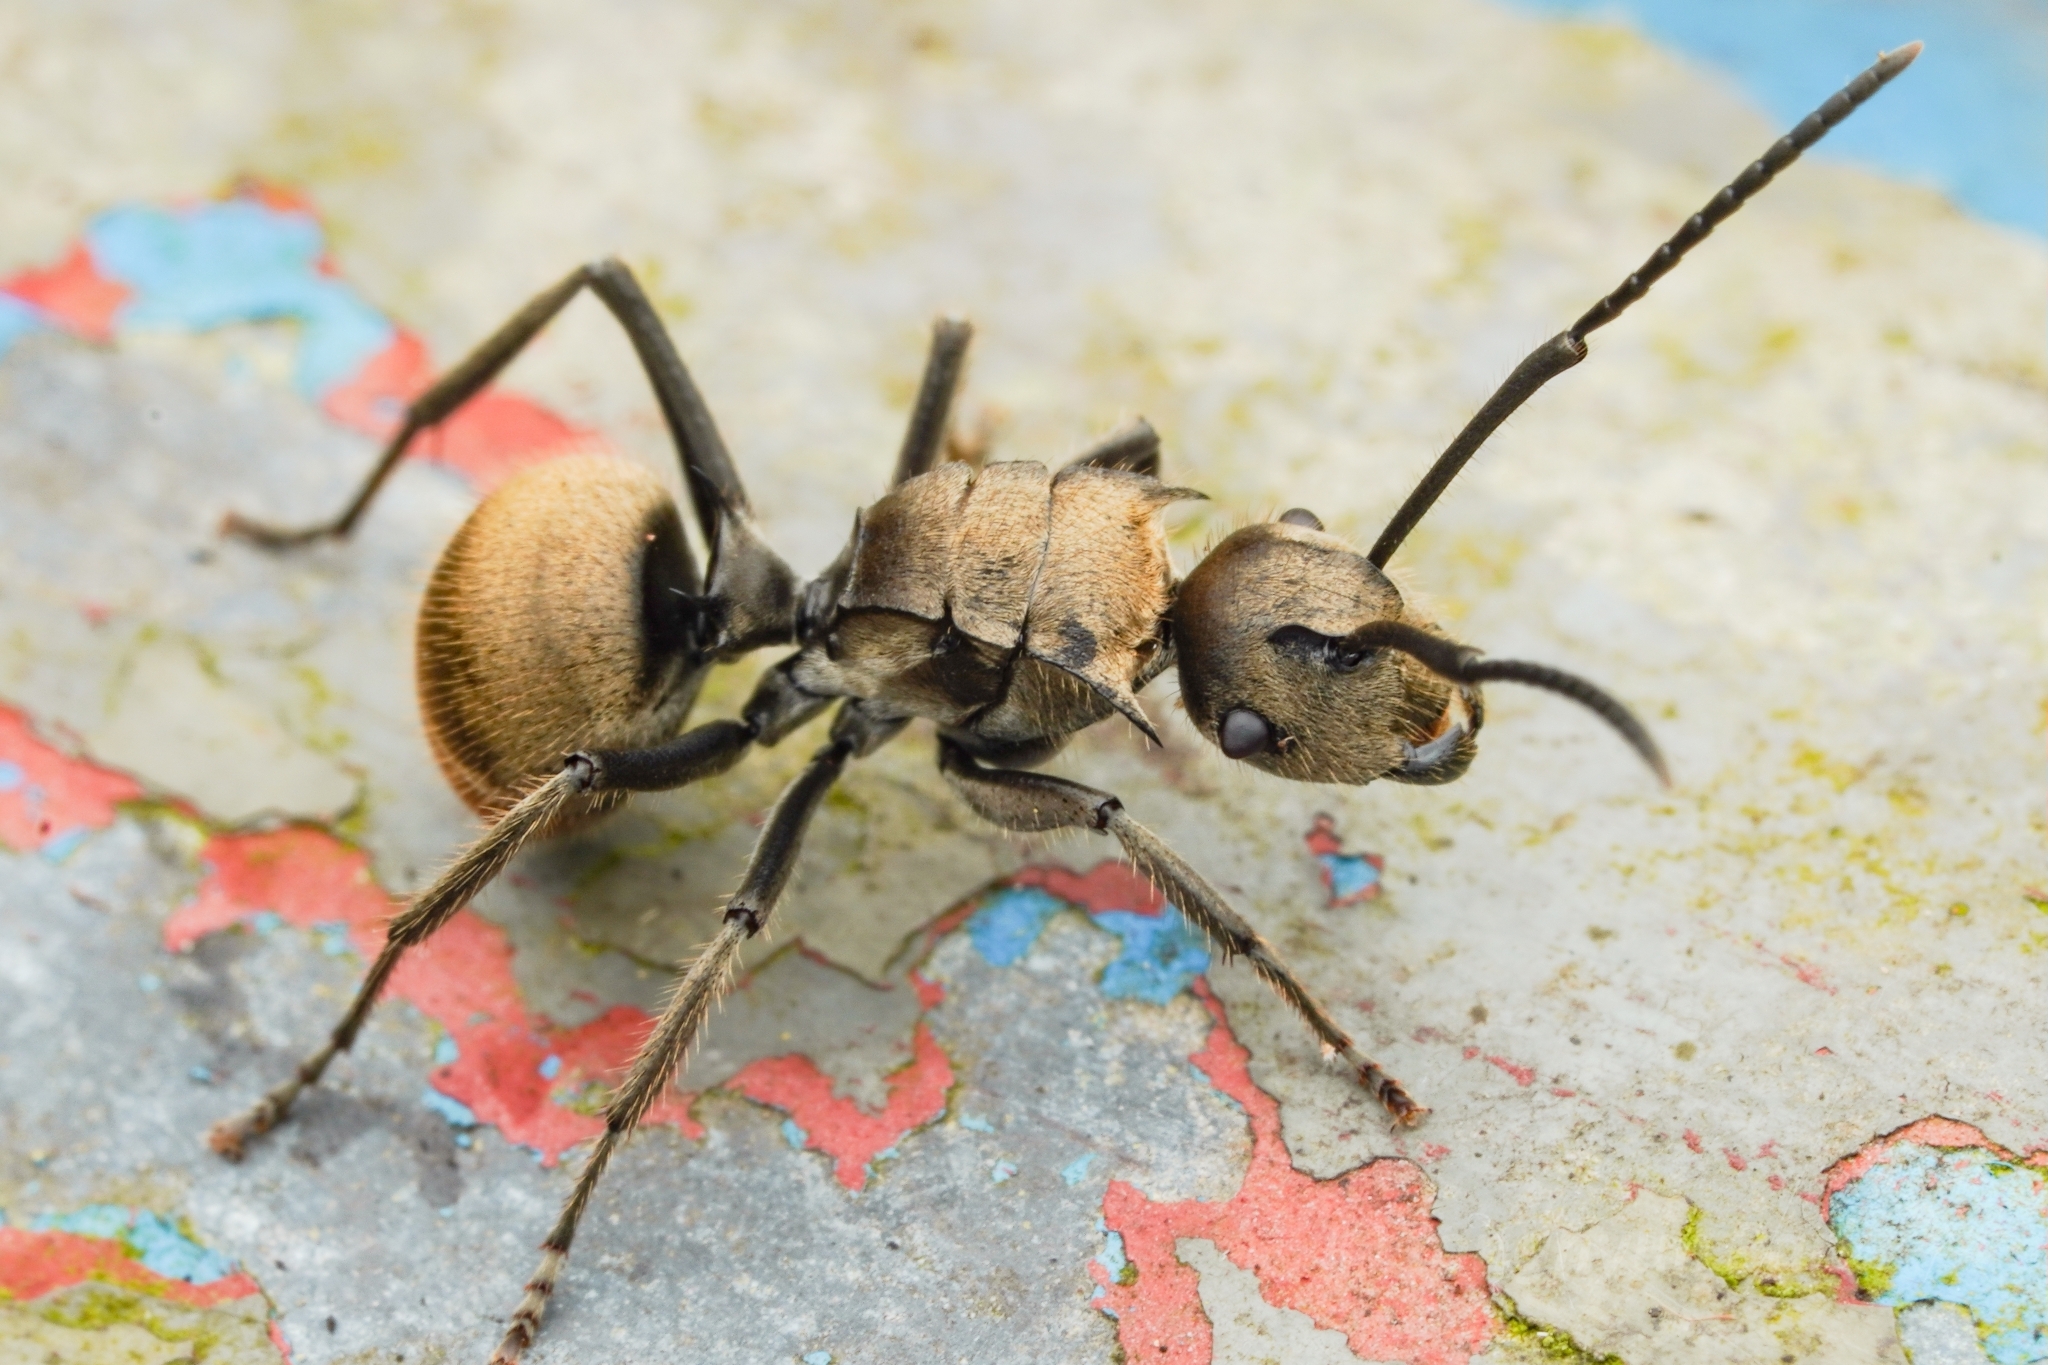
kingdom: Animalia
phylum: Arthropoda
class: Insecta
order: Hymenoptera
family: Formicidae
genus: Polyrhachis
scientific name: Polyrhachis vigilans
